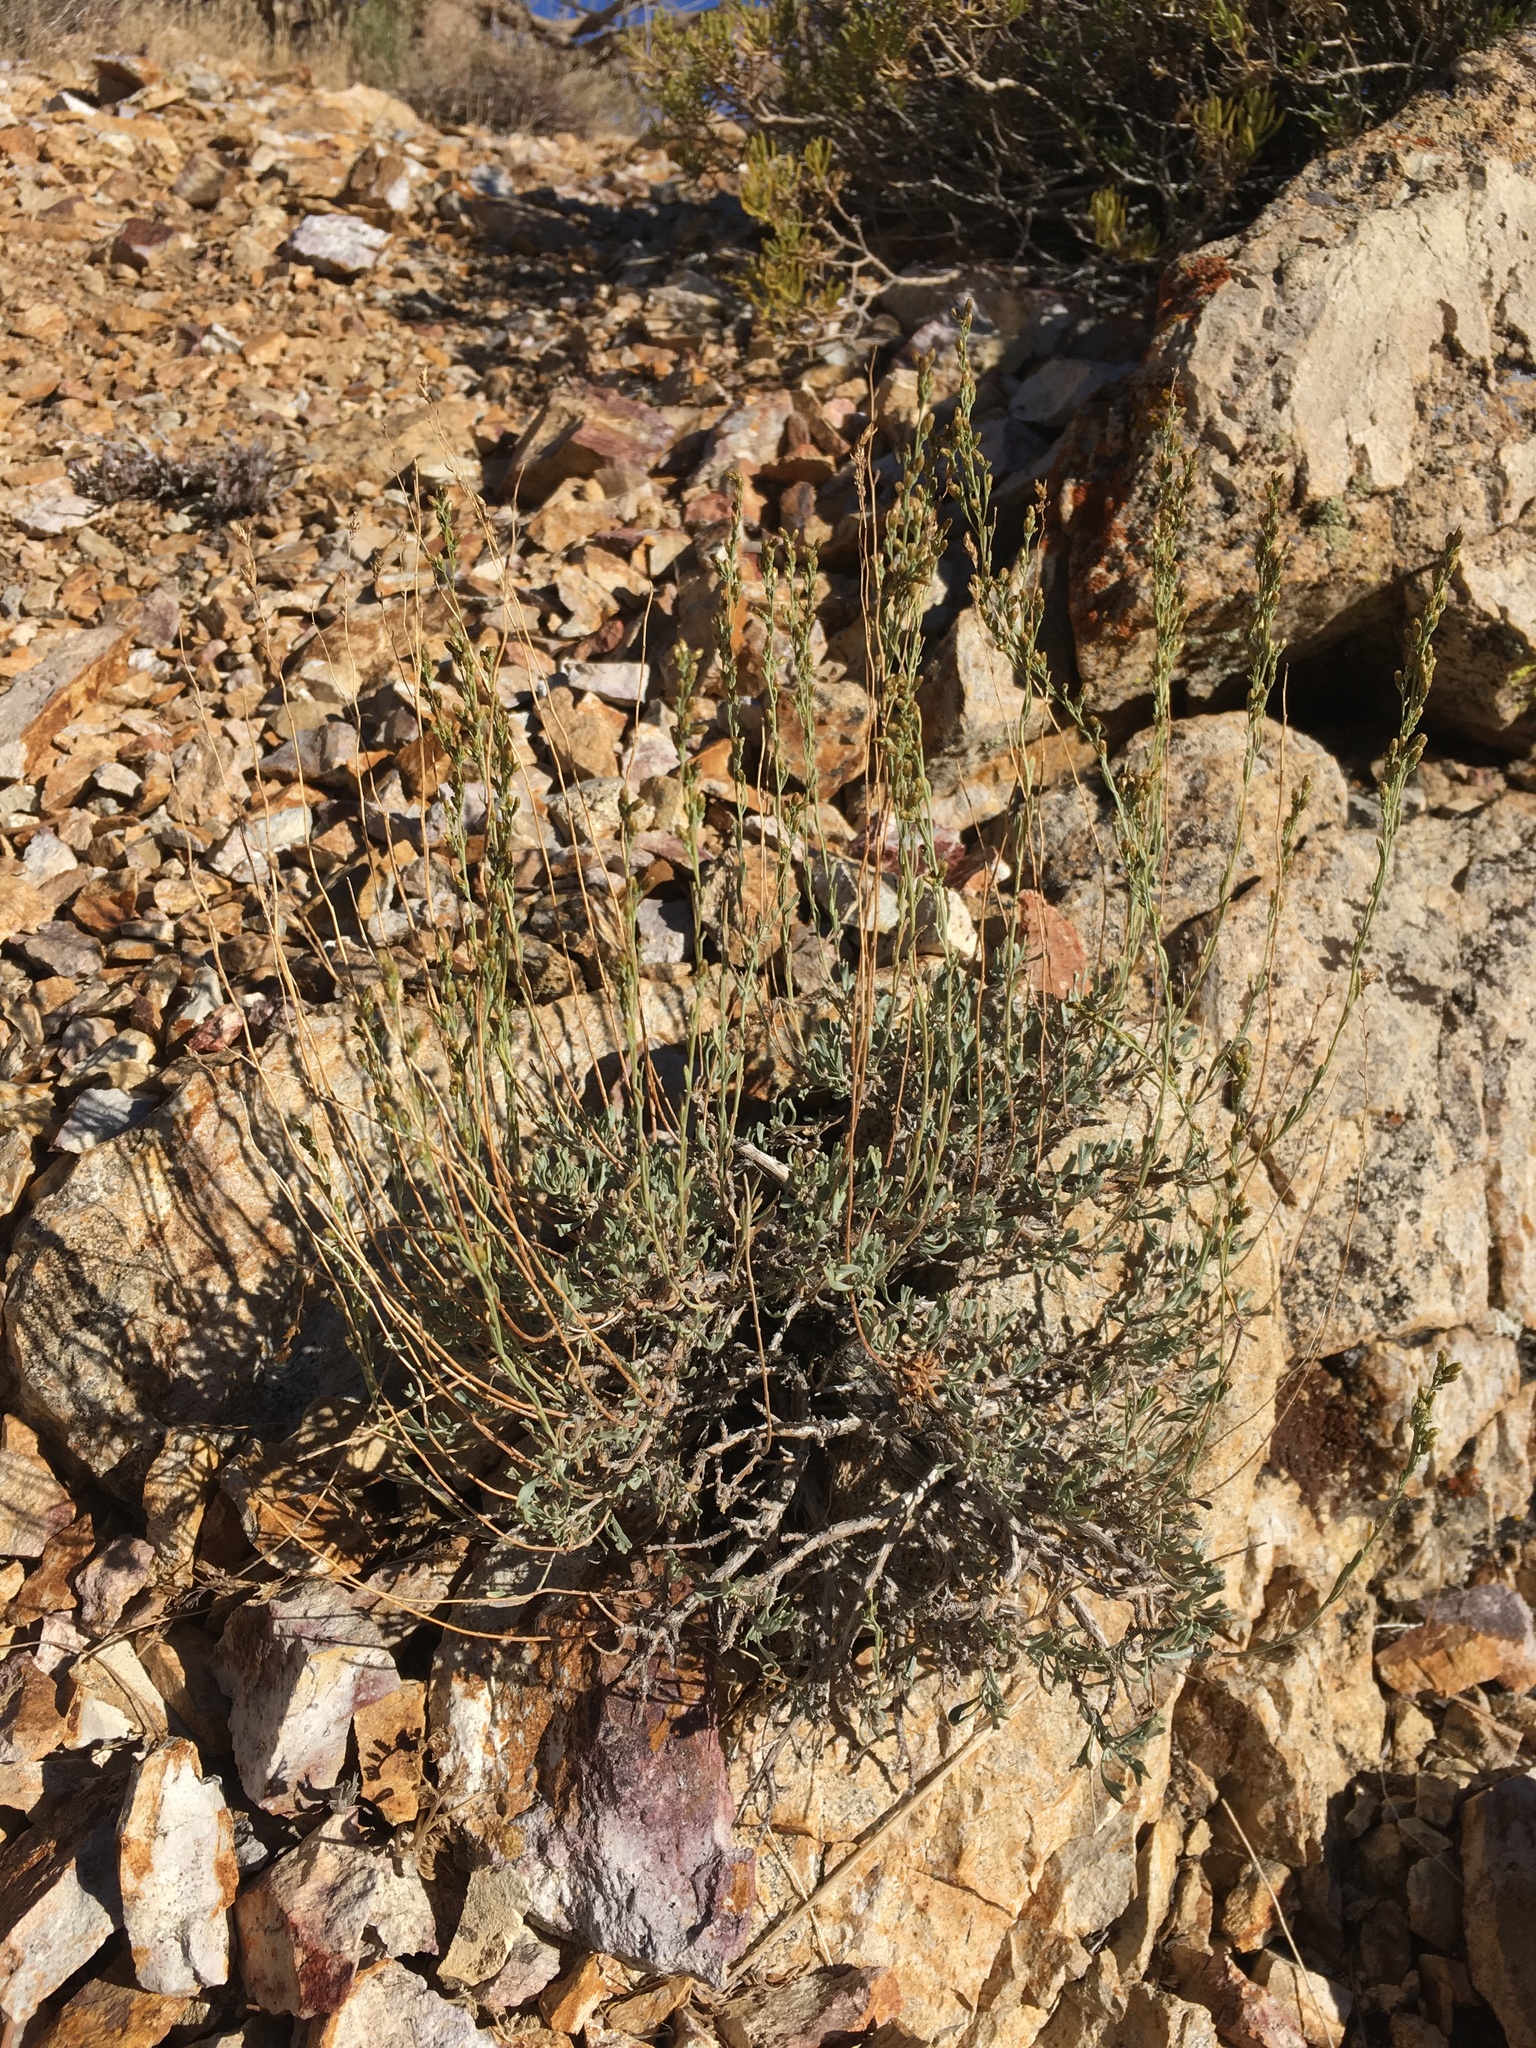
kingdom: Plantae
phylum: Tracheophyta
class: Magnoliopsida
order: Asterales
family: Asteraceae
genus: Artemisia
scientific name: Artemisia nova
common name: Black-sage
